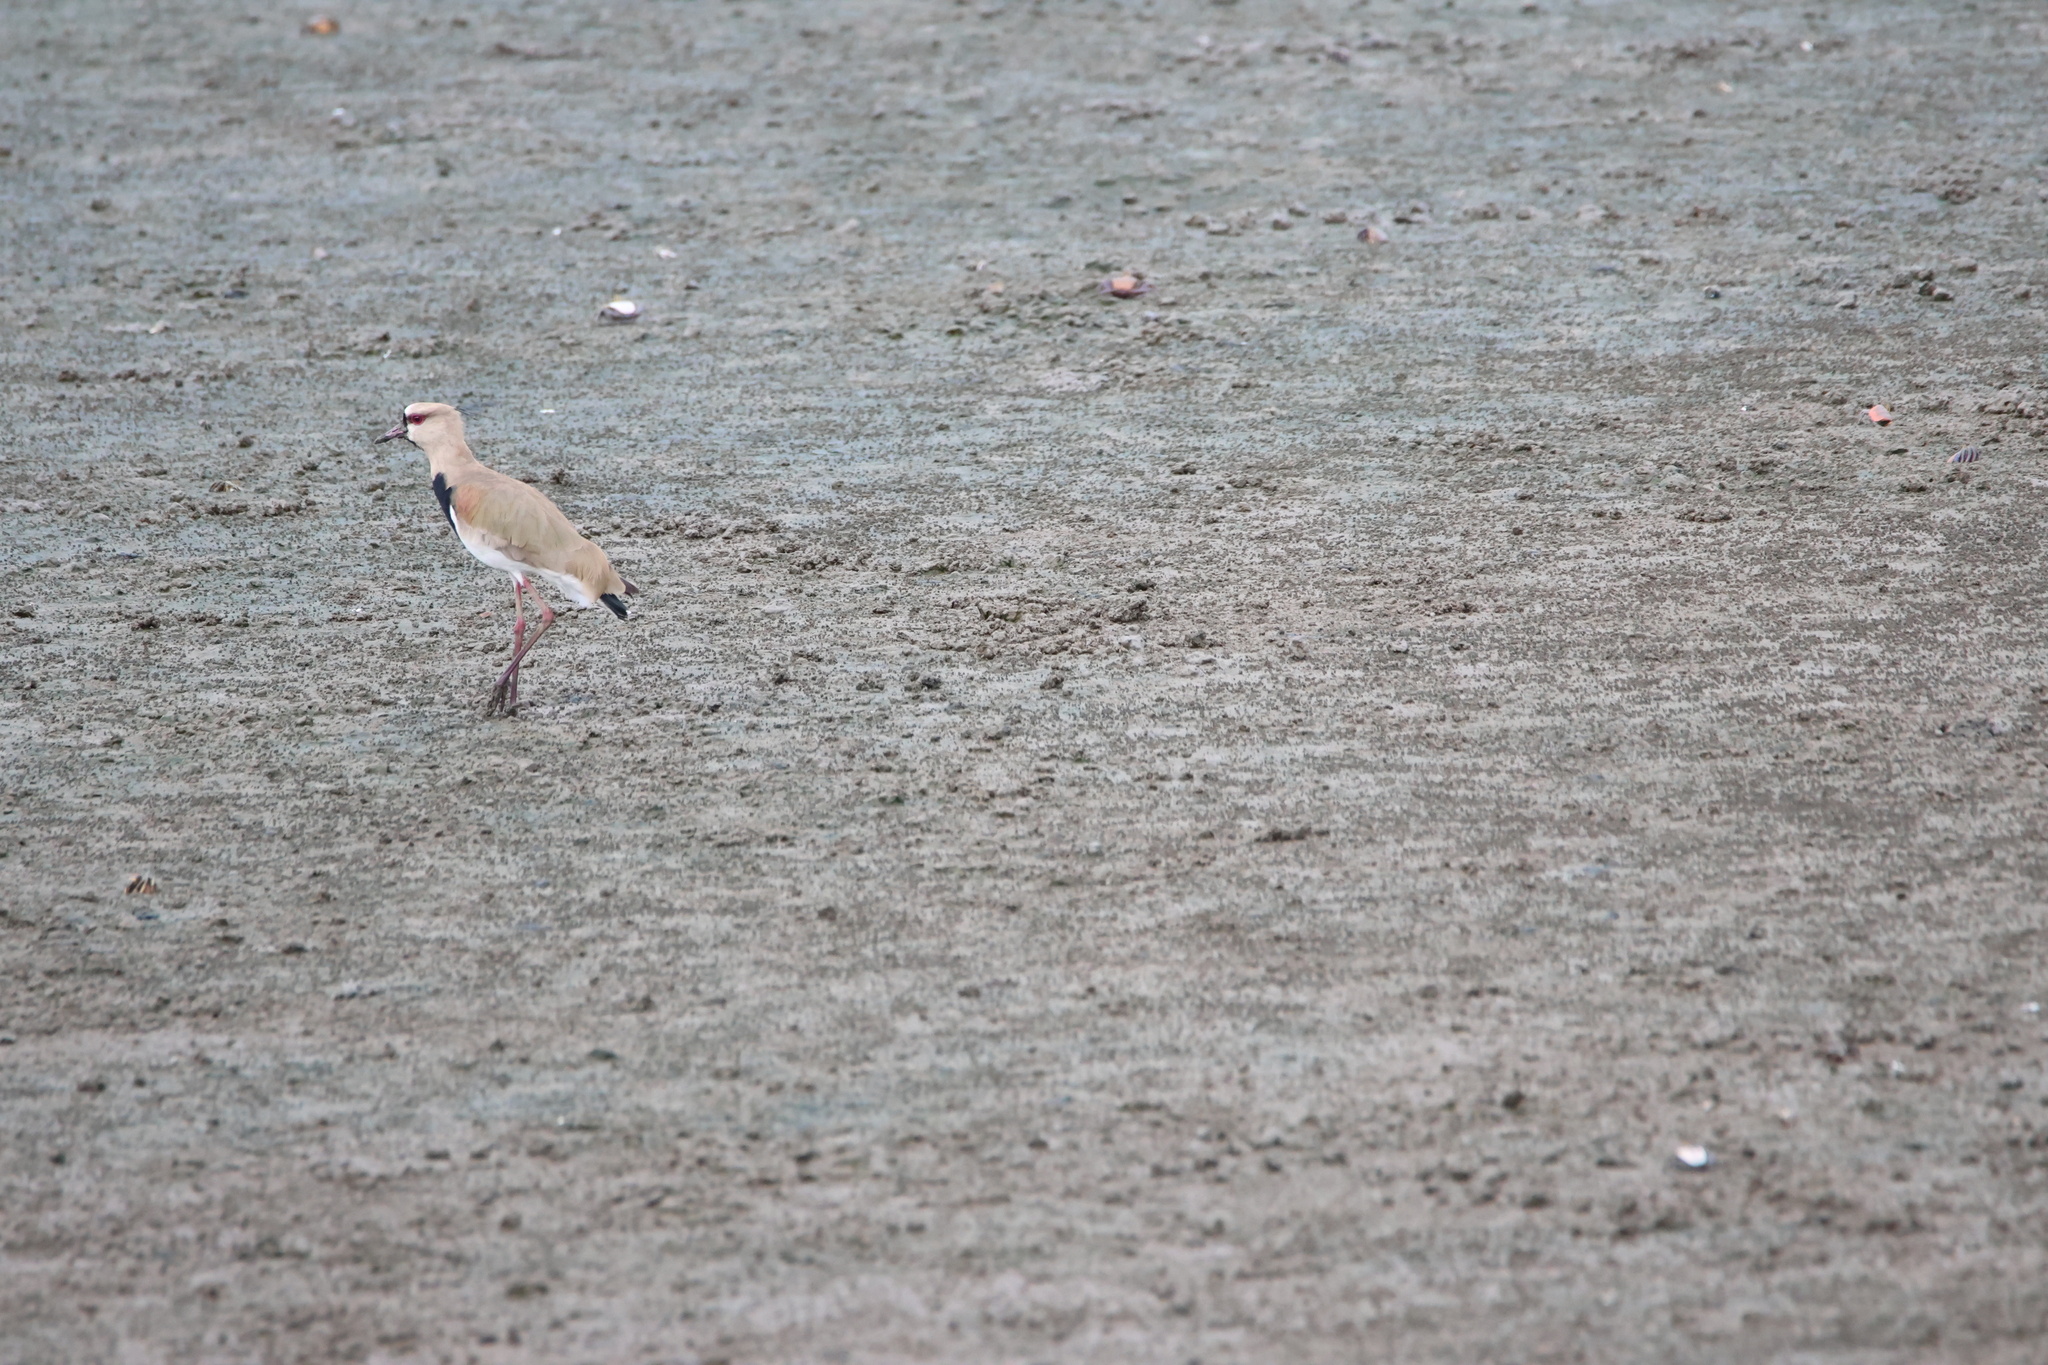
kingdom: Animalia
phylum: Chordata
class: Aves
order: Charadriiformes
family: Charadriidae
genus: Vanellus
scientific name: Vanellus chilensis
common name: Southern lapwing
